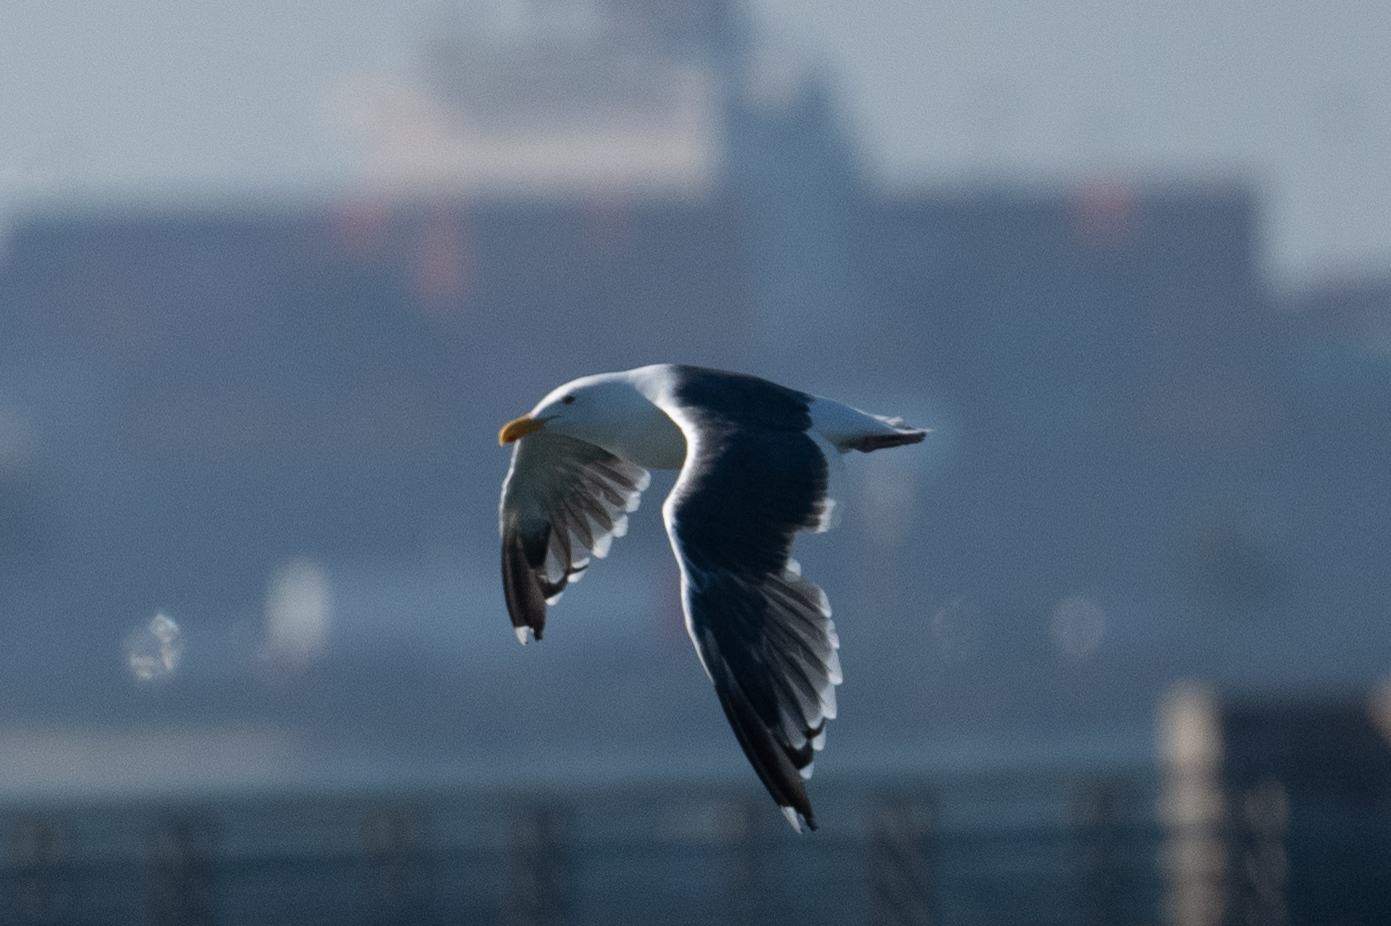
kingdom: Animalia
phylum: Chordata
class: Aves
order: Charadriiformes
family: Laridae
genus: Larus
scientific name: Larus occidentalis
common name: Western gull
